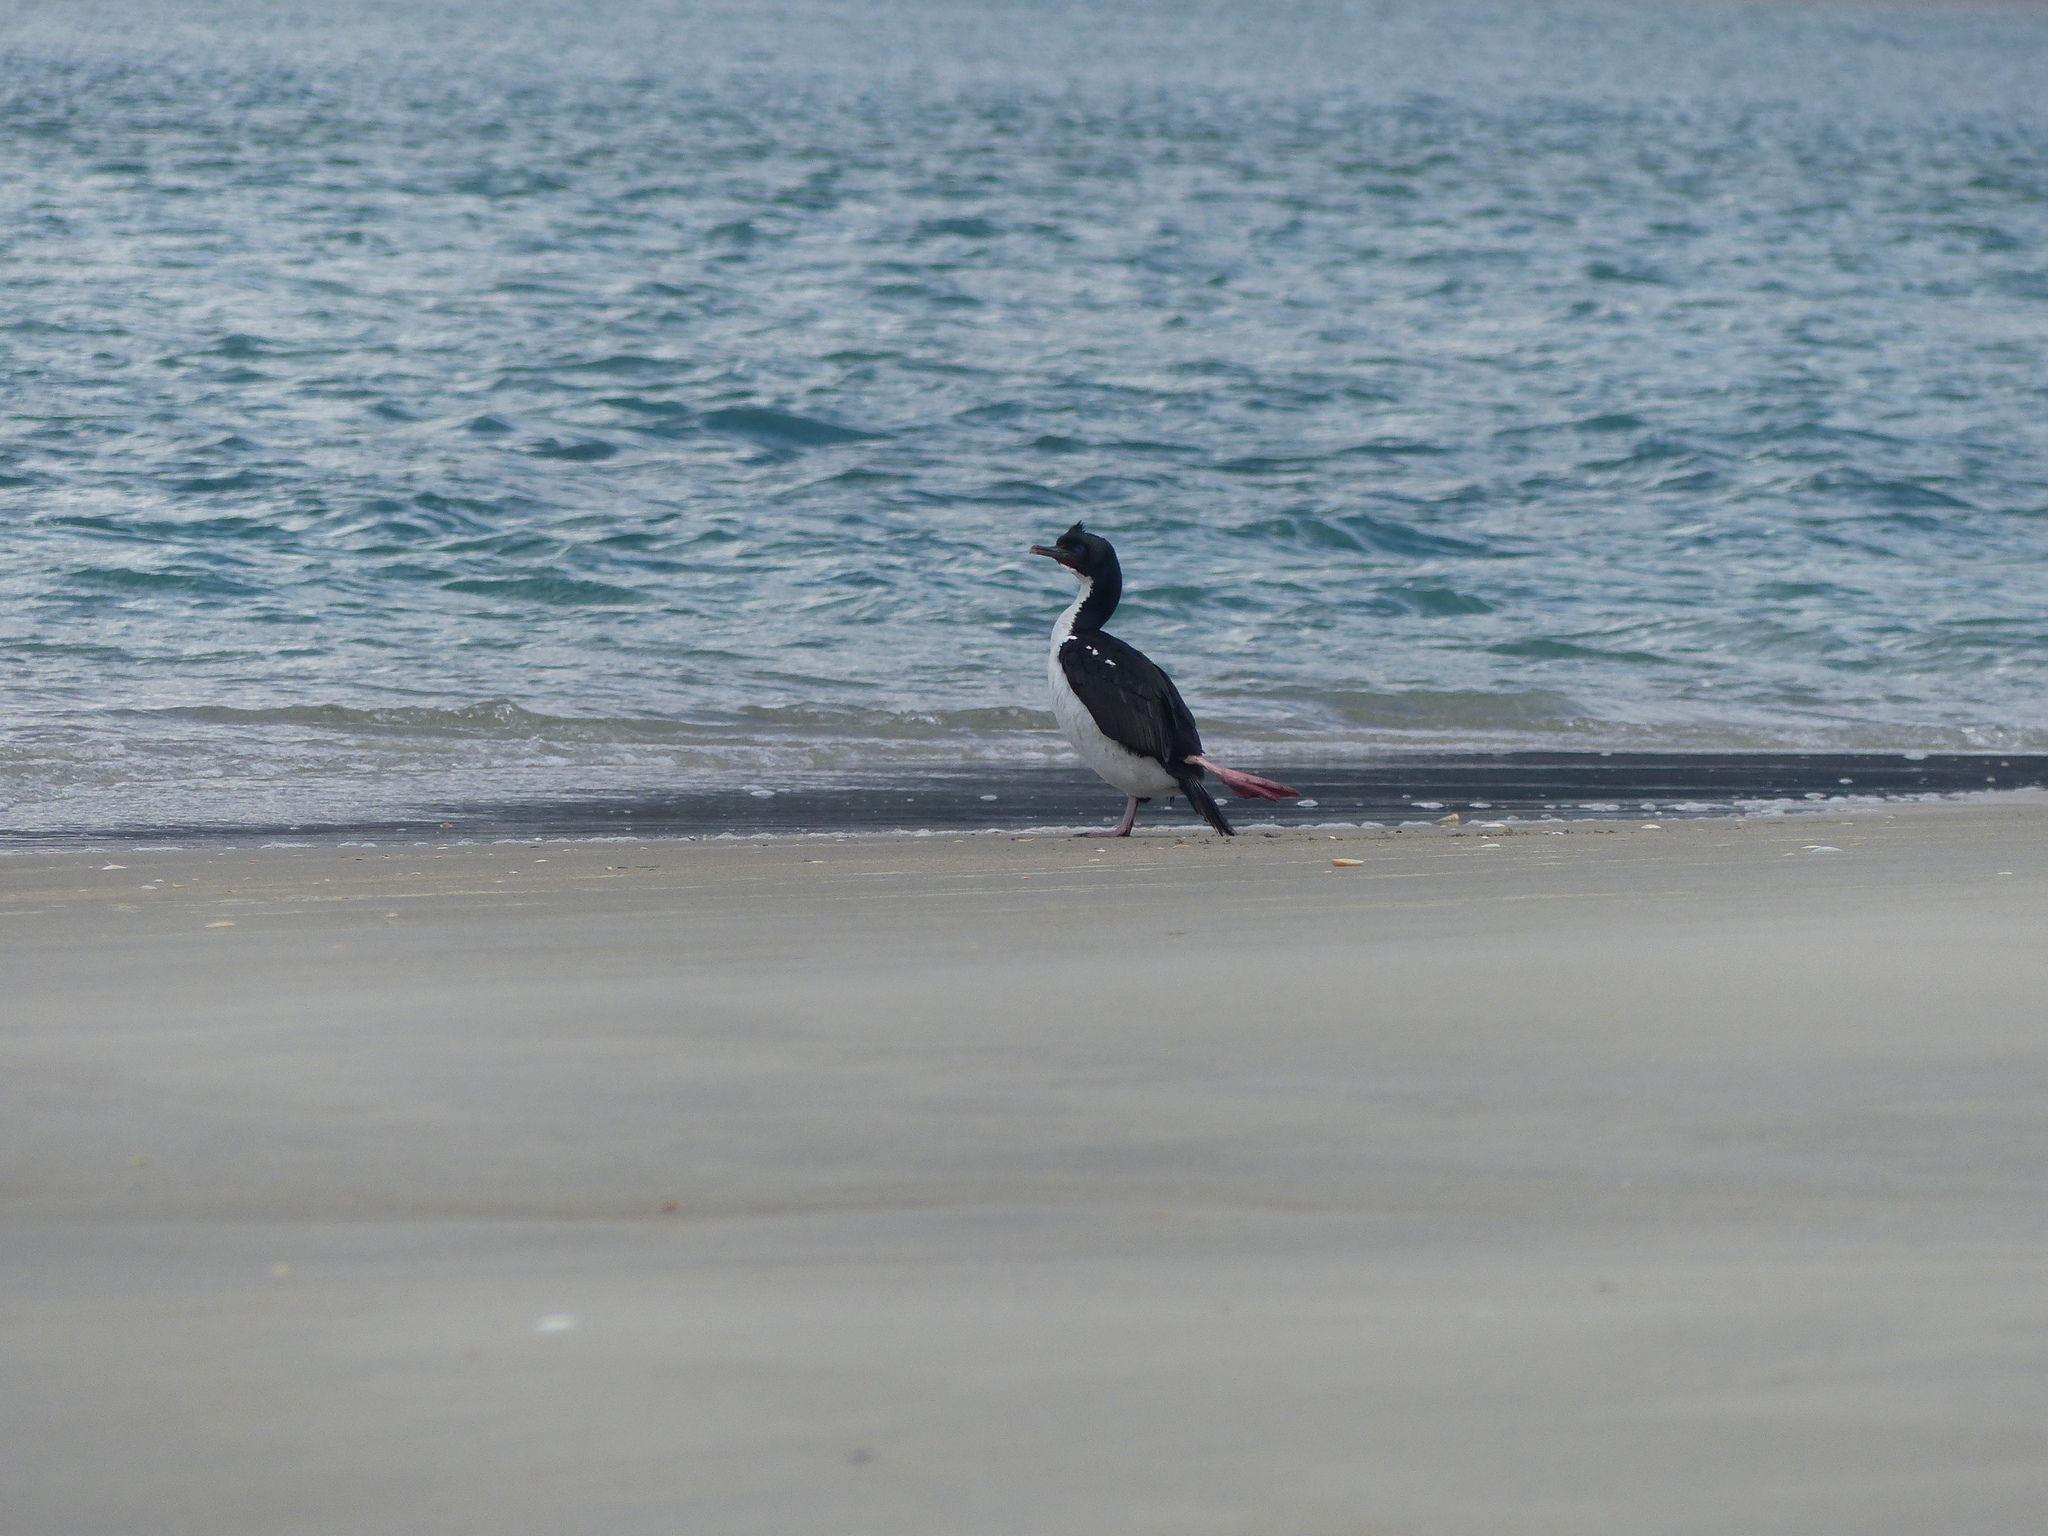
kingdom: Animalia
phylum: Chordata
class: Aves
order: Suliformes
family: Phalacrocoracidae
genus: Leucocarbo
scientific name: Leucocarbo chalconotus
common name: Stewart shag
